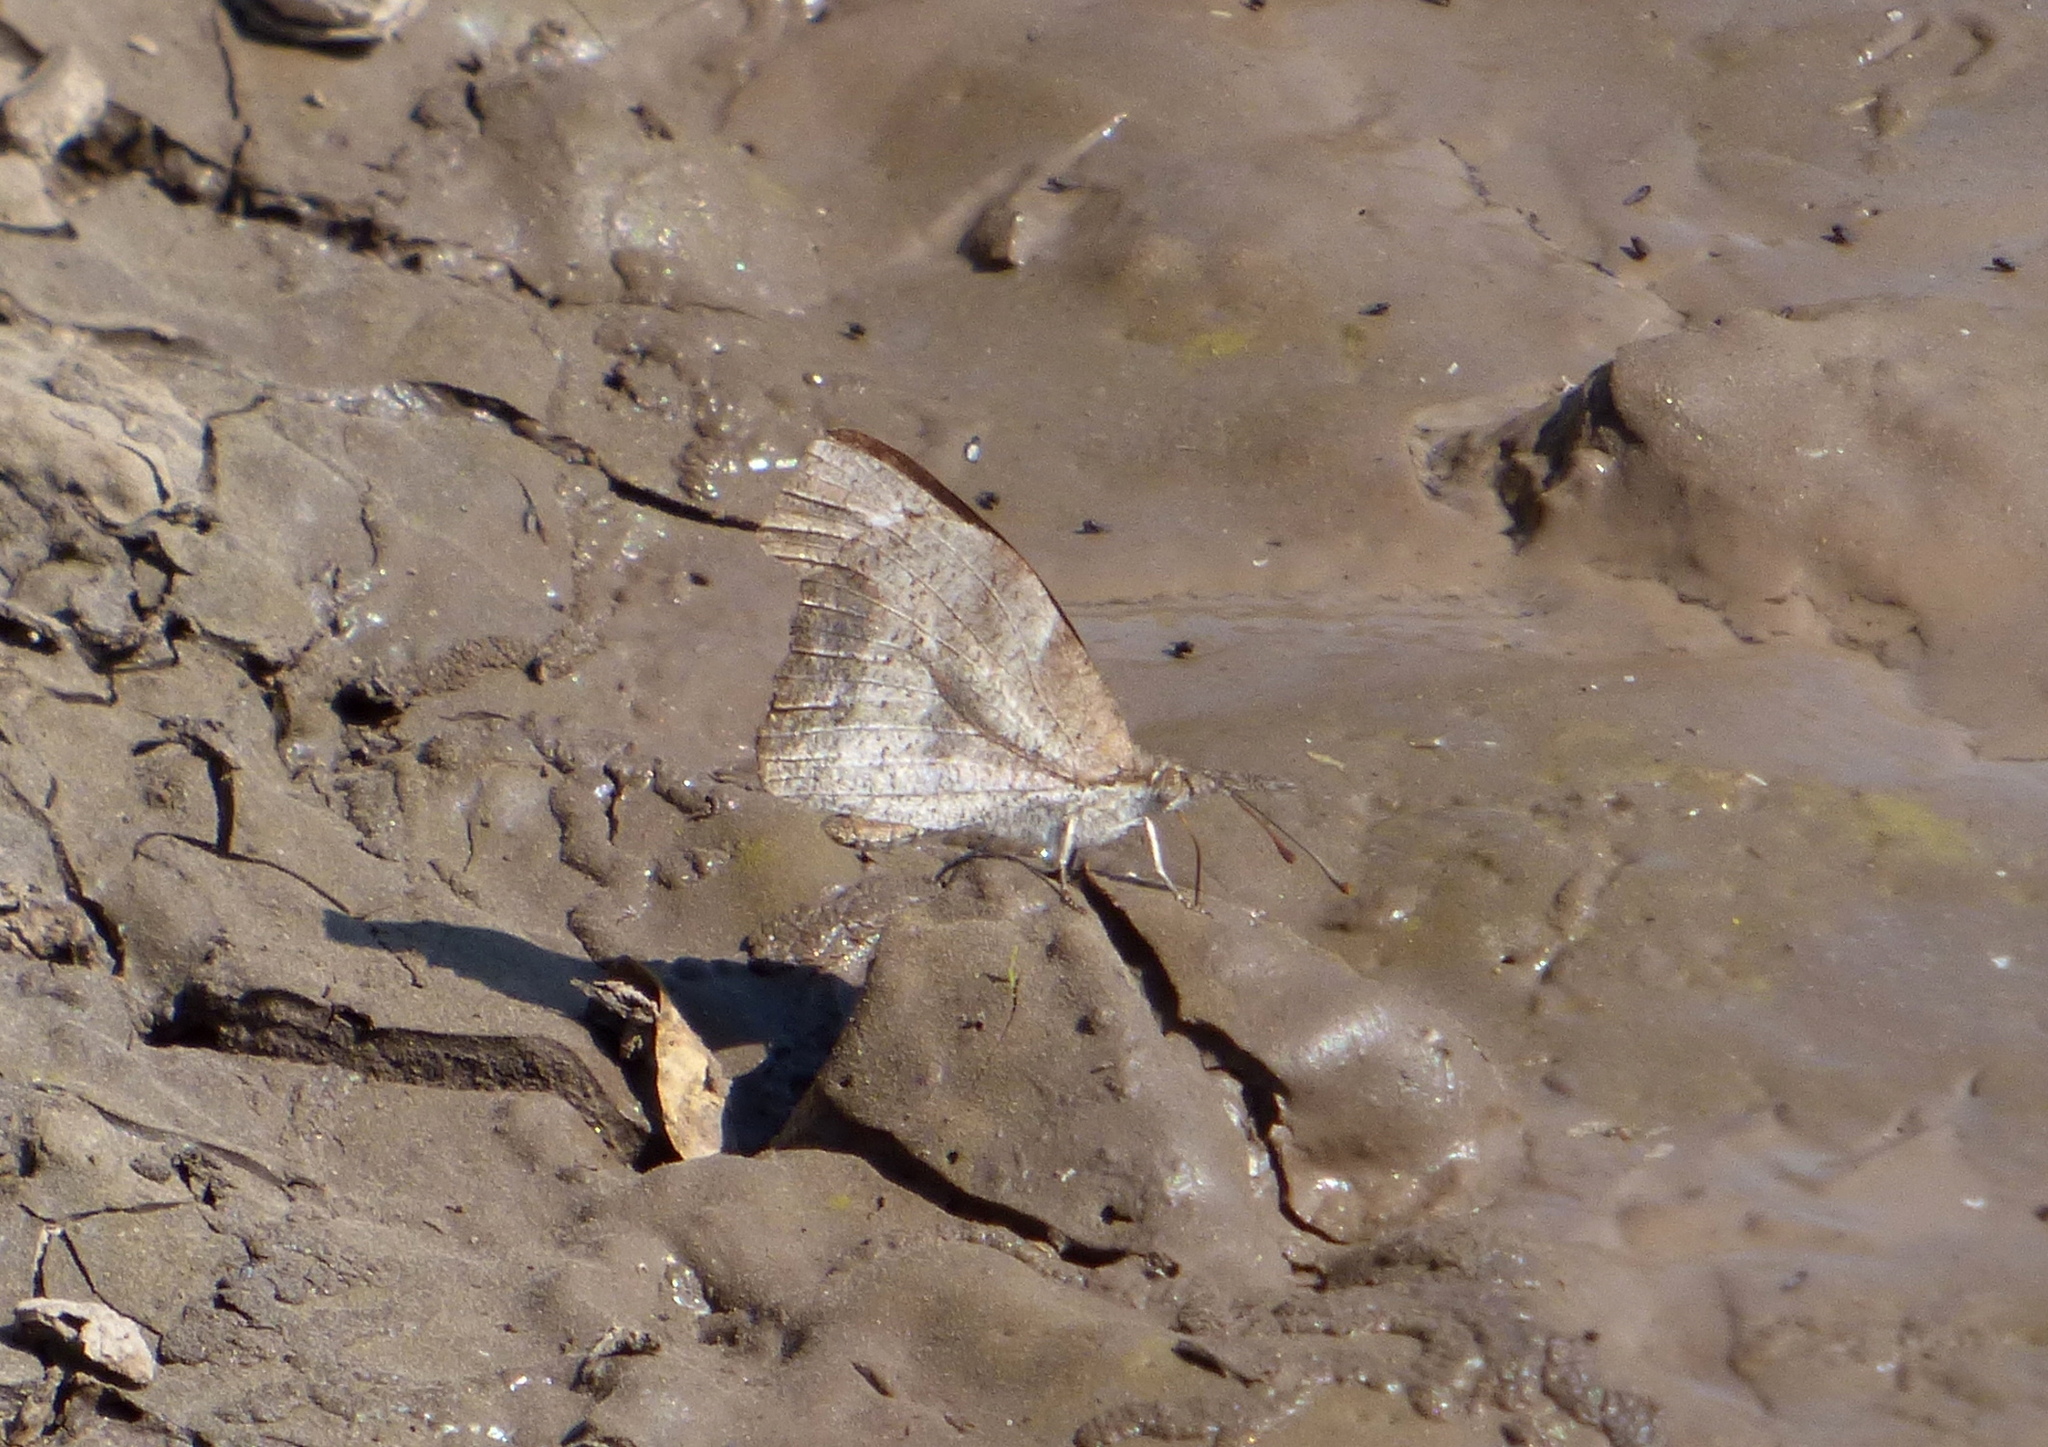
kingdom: Animalia
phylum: Arthropoda
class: Insecta
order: Lepidoptera
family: Nymphalidae
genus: Libytheana
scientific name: Libytheana carinenta
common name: American snout
